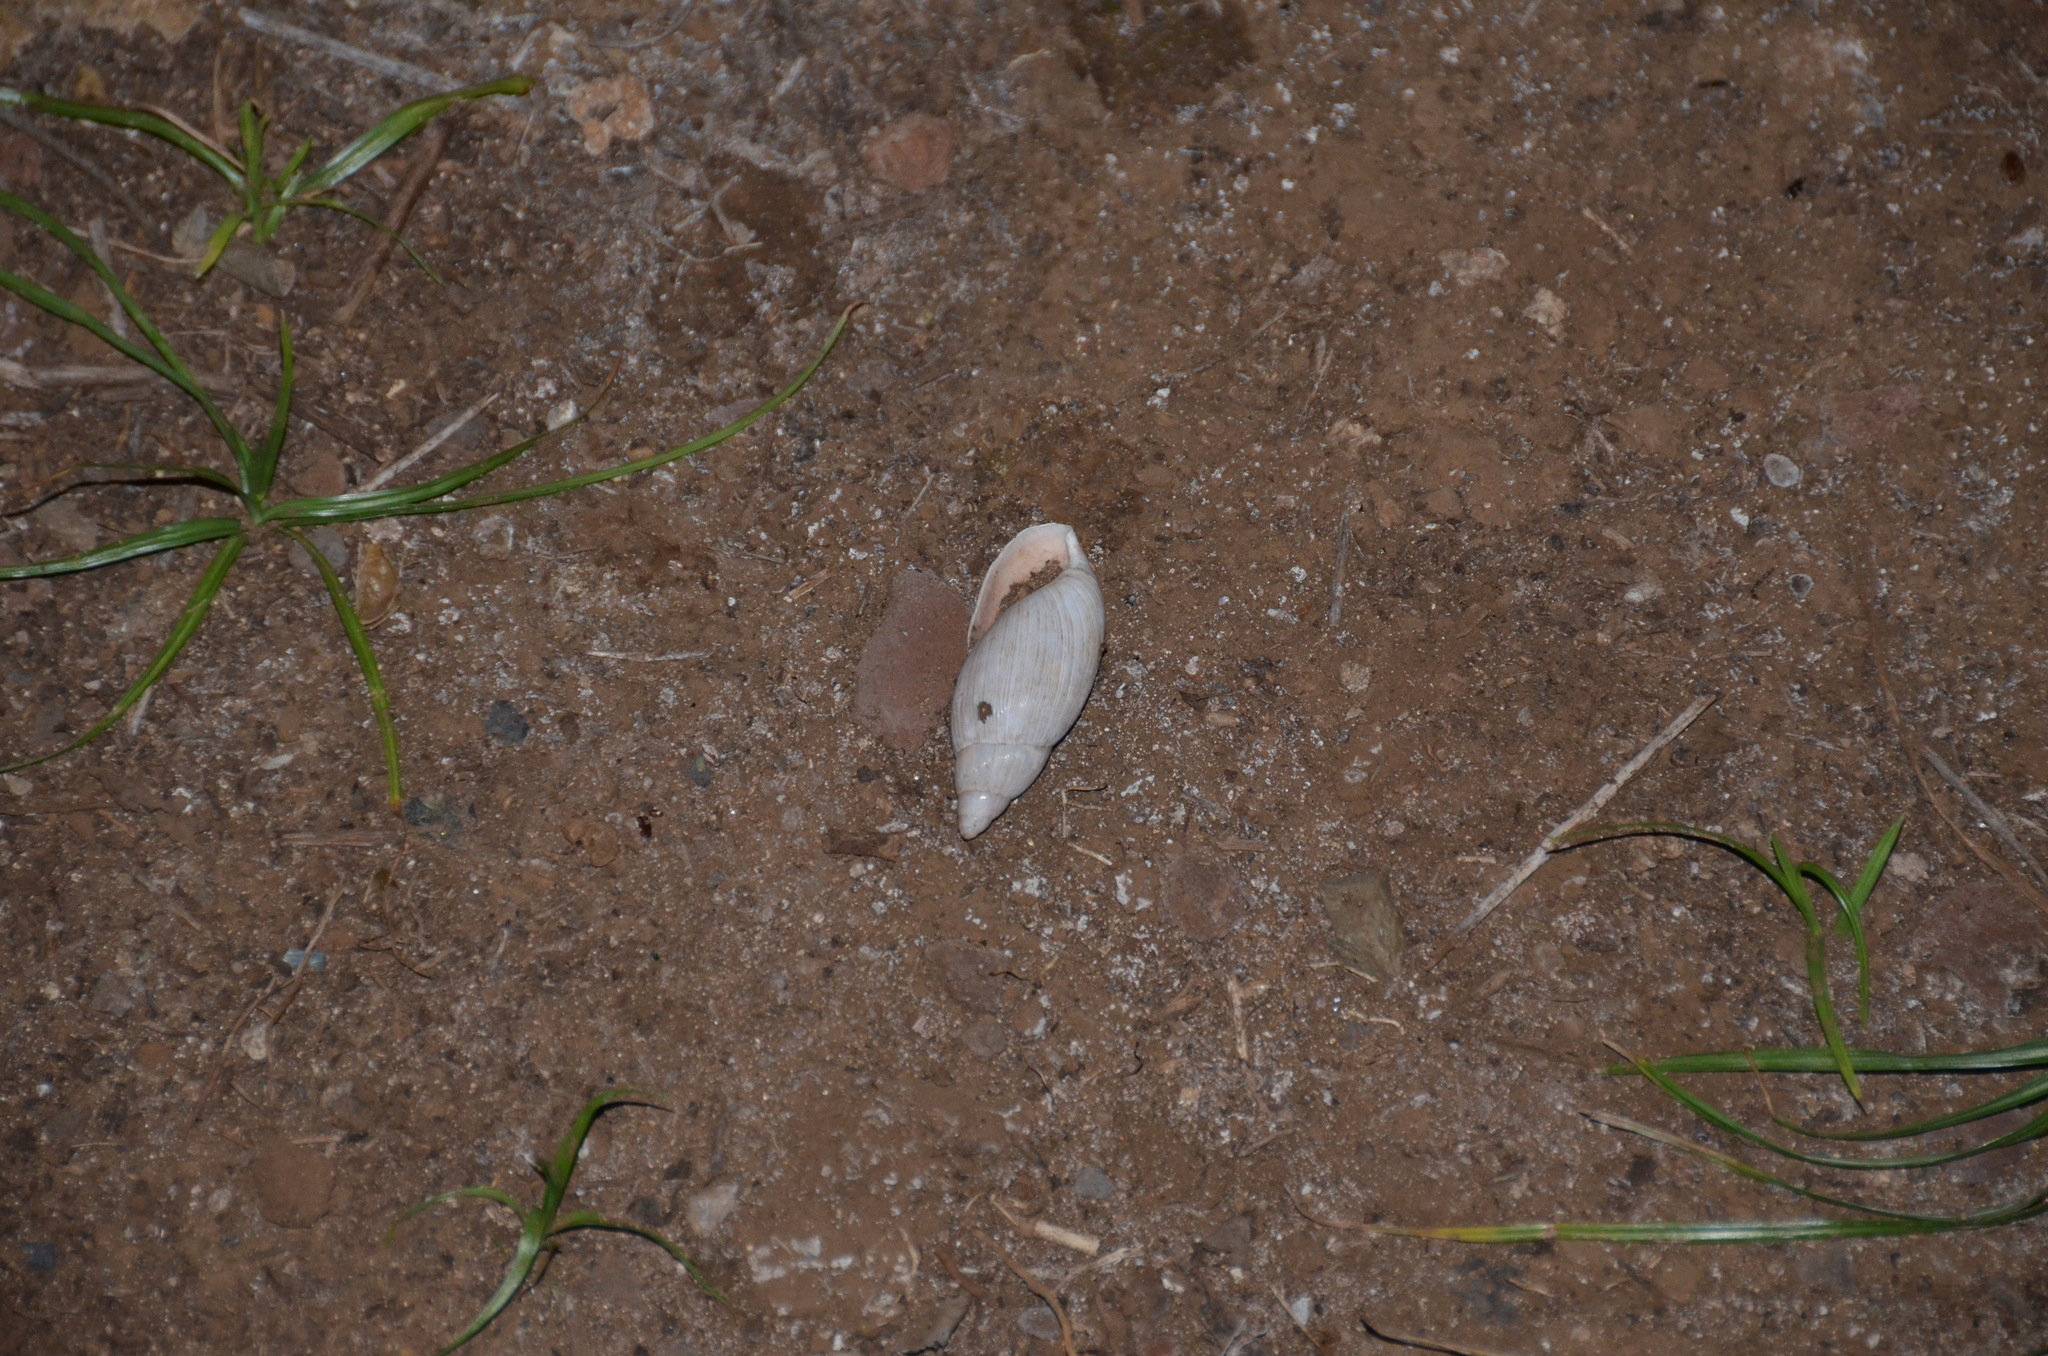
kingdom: Animalia
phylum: Mollusca
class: Gastropoda
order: Stylommatophora
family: Spiraxidae
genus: Euglandina
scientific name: Euglandina rosea
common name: Rosy wolfsnail
